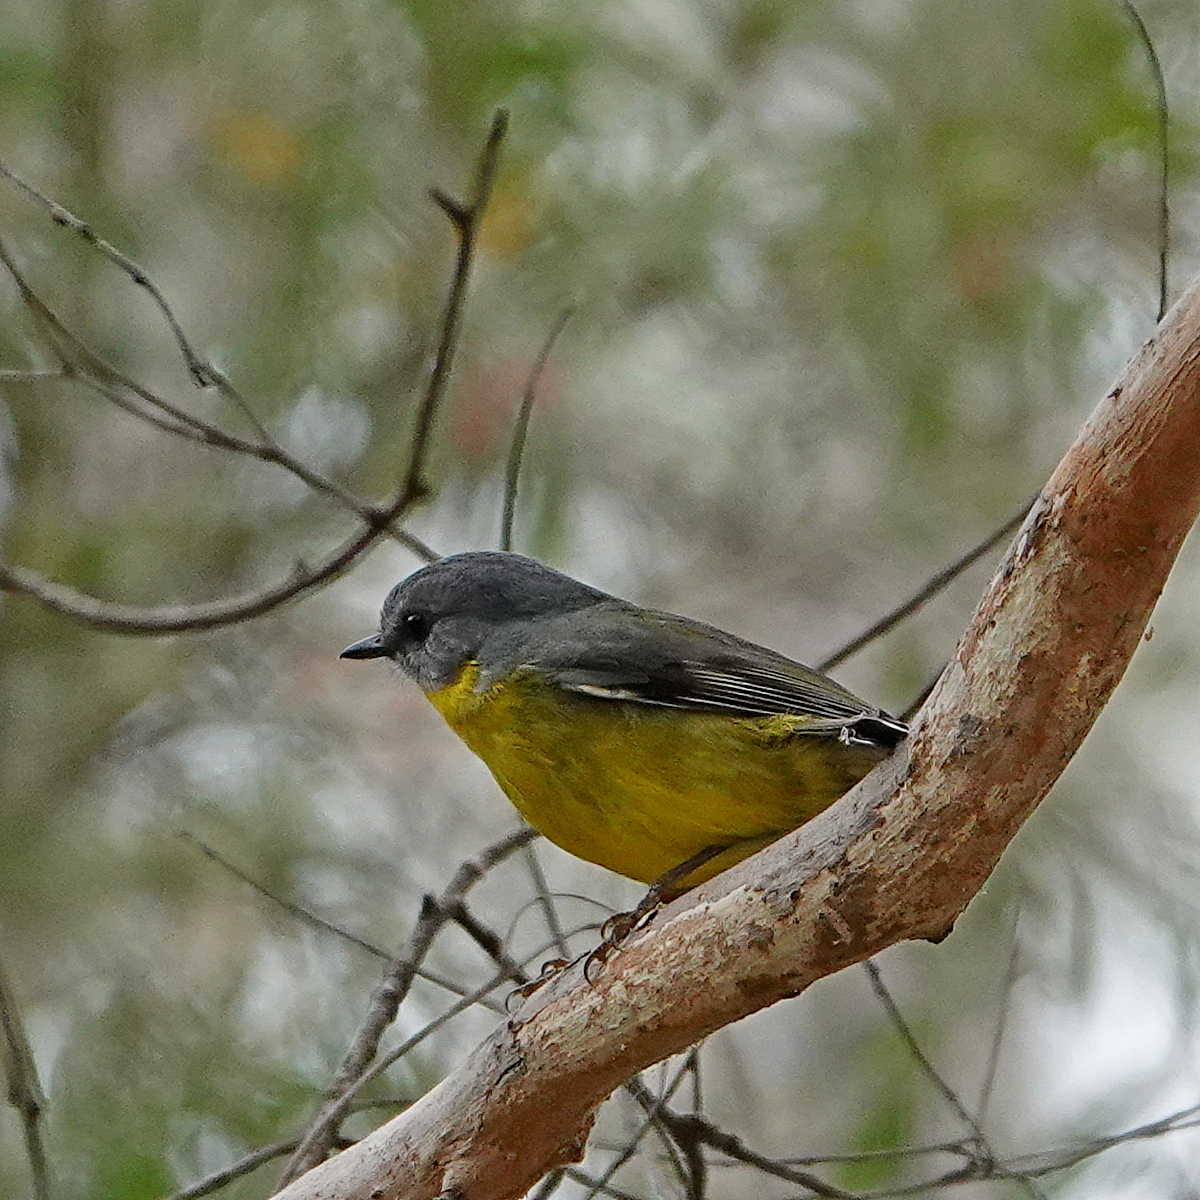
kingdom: Animalia
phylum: Chordata
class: Aves
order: Passeriformes
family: Petroicidae
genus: Eopsaltria
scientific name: Eopsaltria australis
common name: Eastern yellow robin
